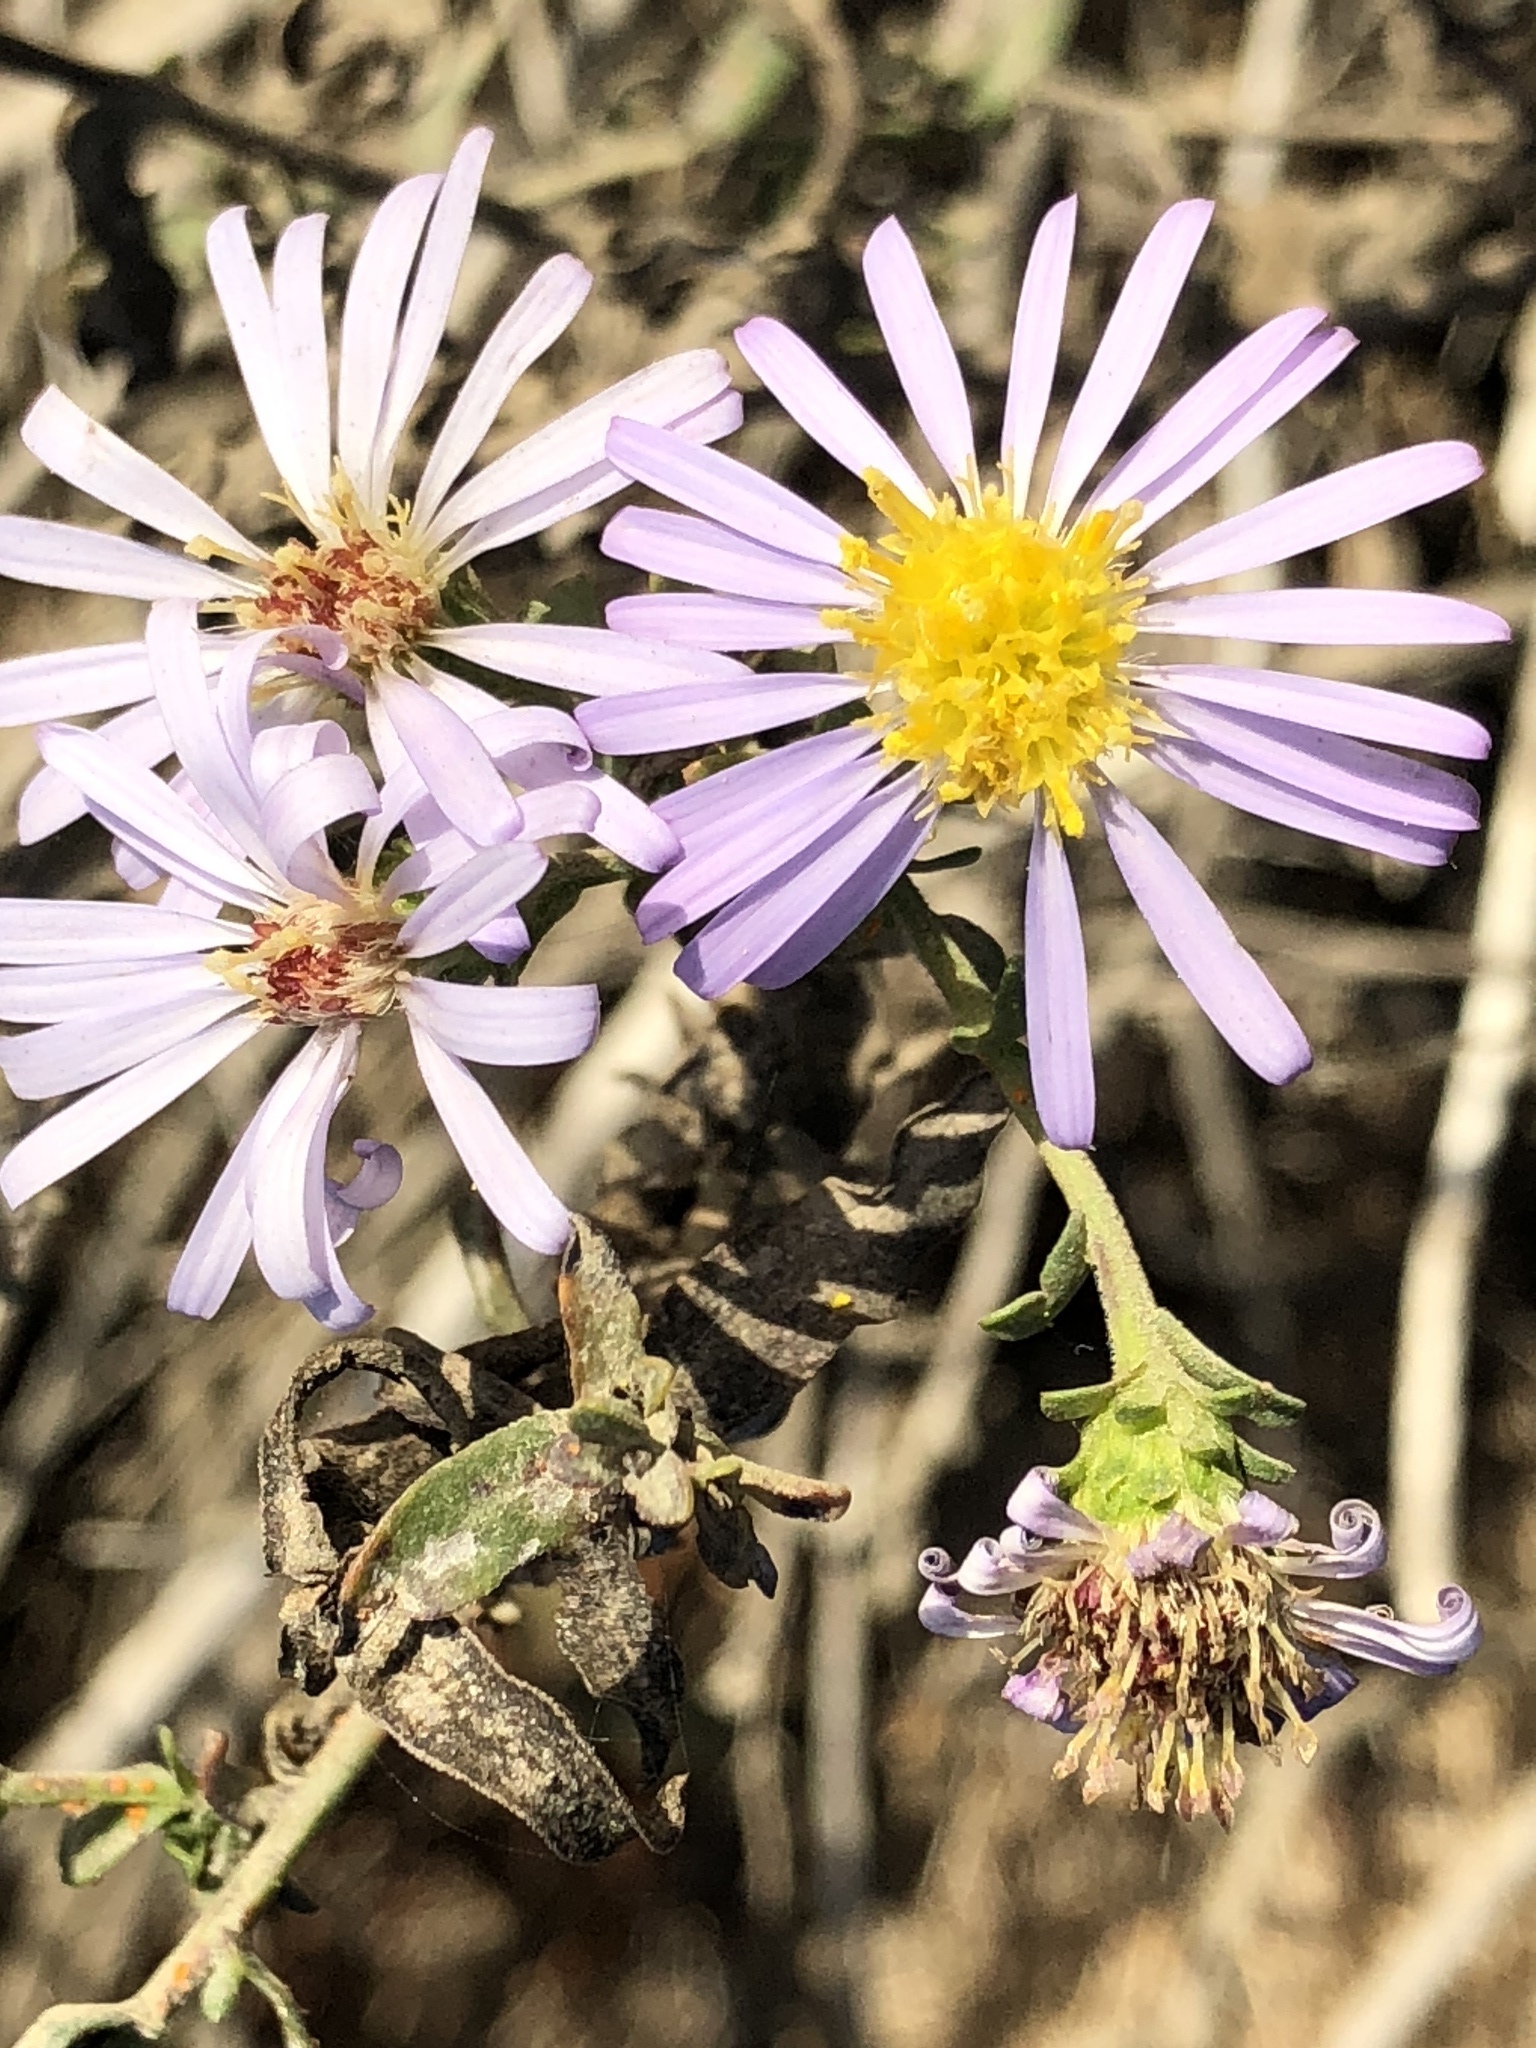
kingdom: Plantae
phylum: Tracheophyta
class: Magnoliopsida
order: Asterales
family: Asteraceae
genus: Symphyotrichum
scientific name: Symphyotrichum chilense
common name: Pacific aster
